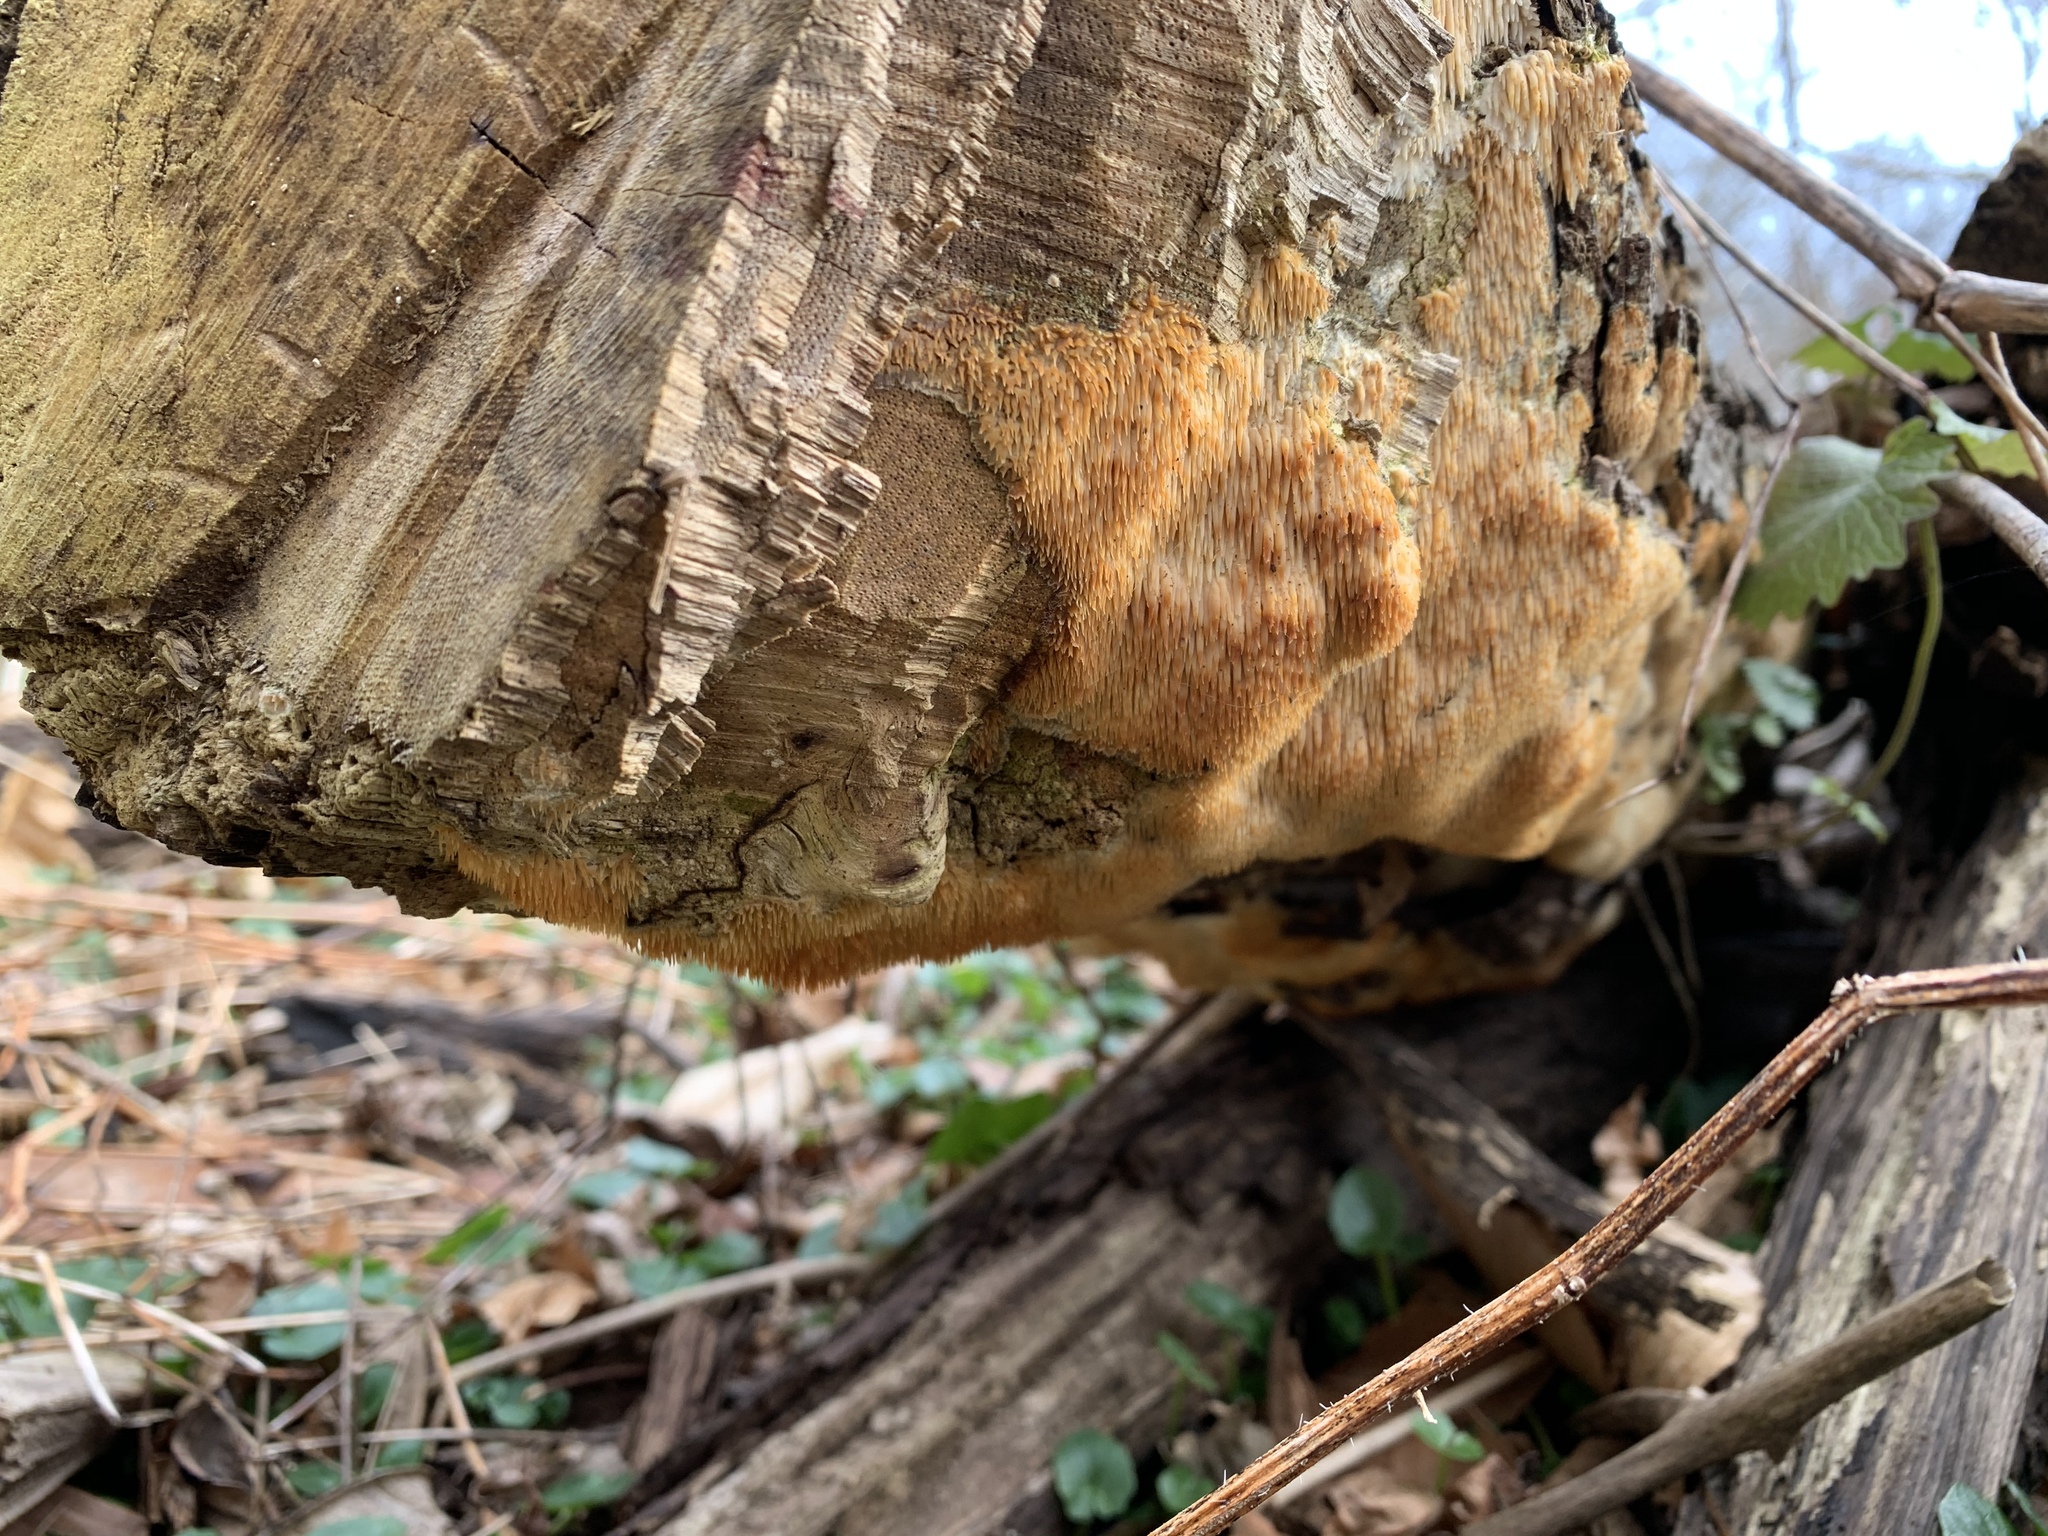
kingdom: Fungi
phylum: Basidiomycota
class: Agaricomycetes
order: Agaricales
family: Radulomycetaceae
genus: Radulomyces
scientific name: Radulomyces copelandii
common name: Asian beauty
